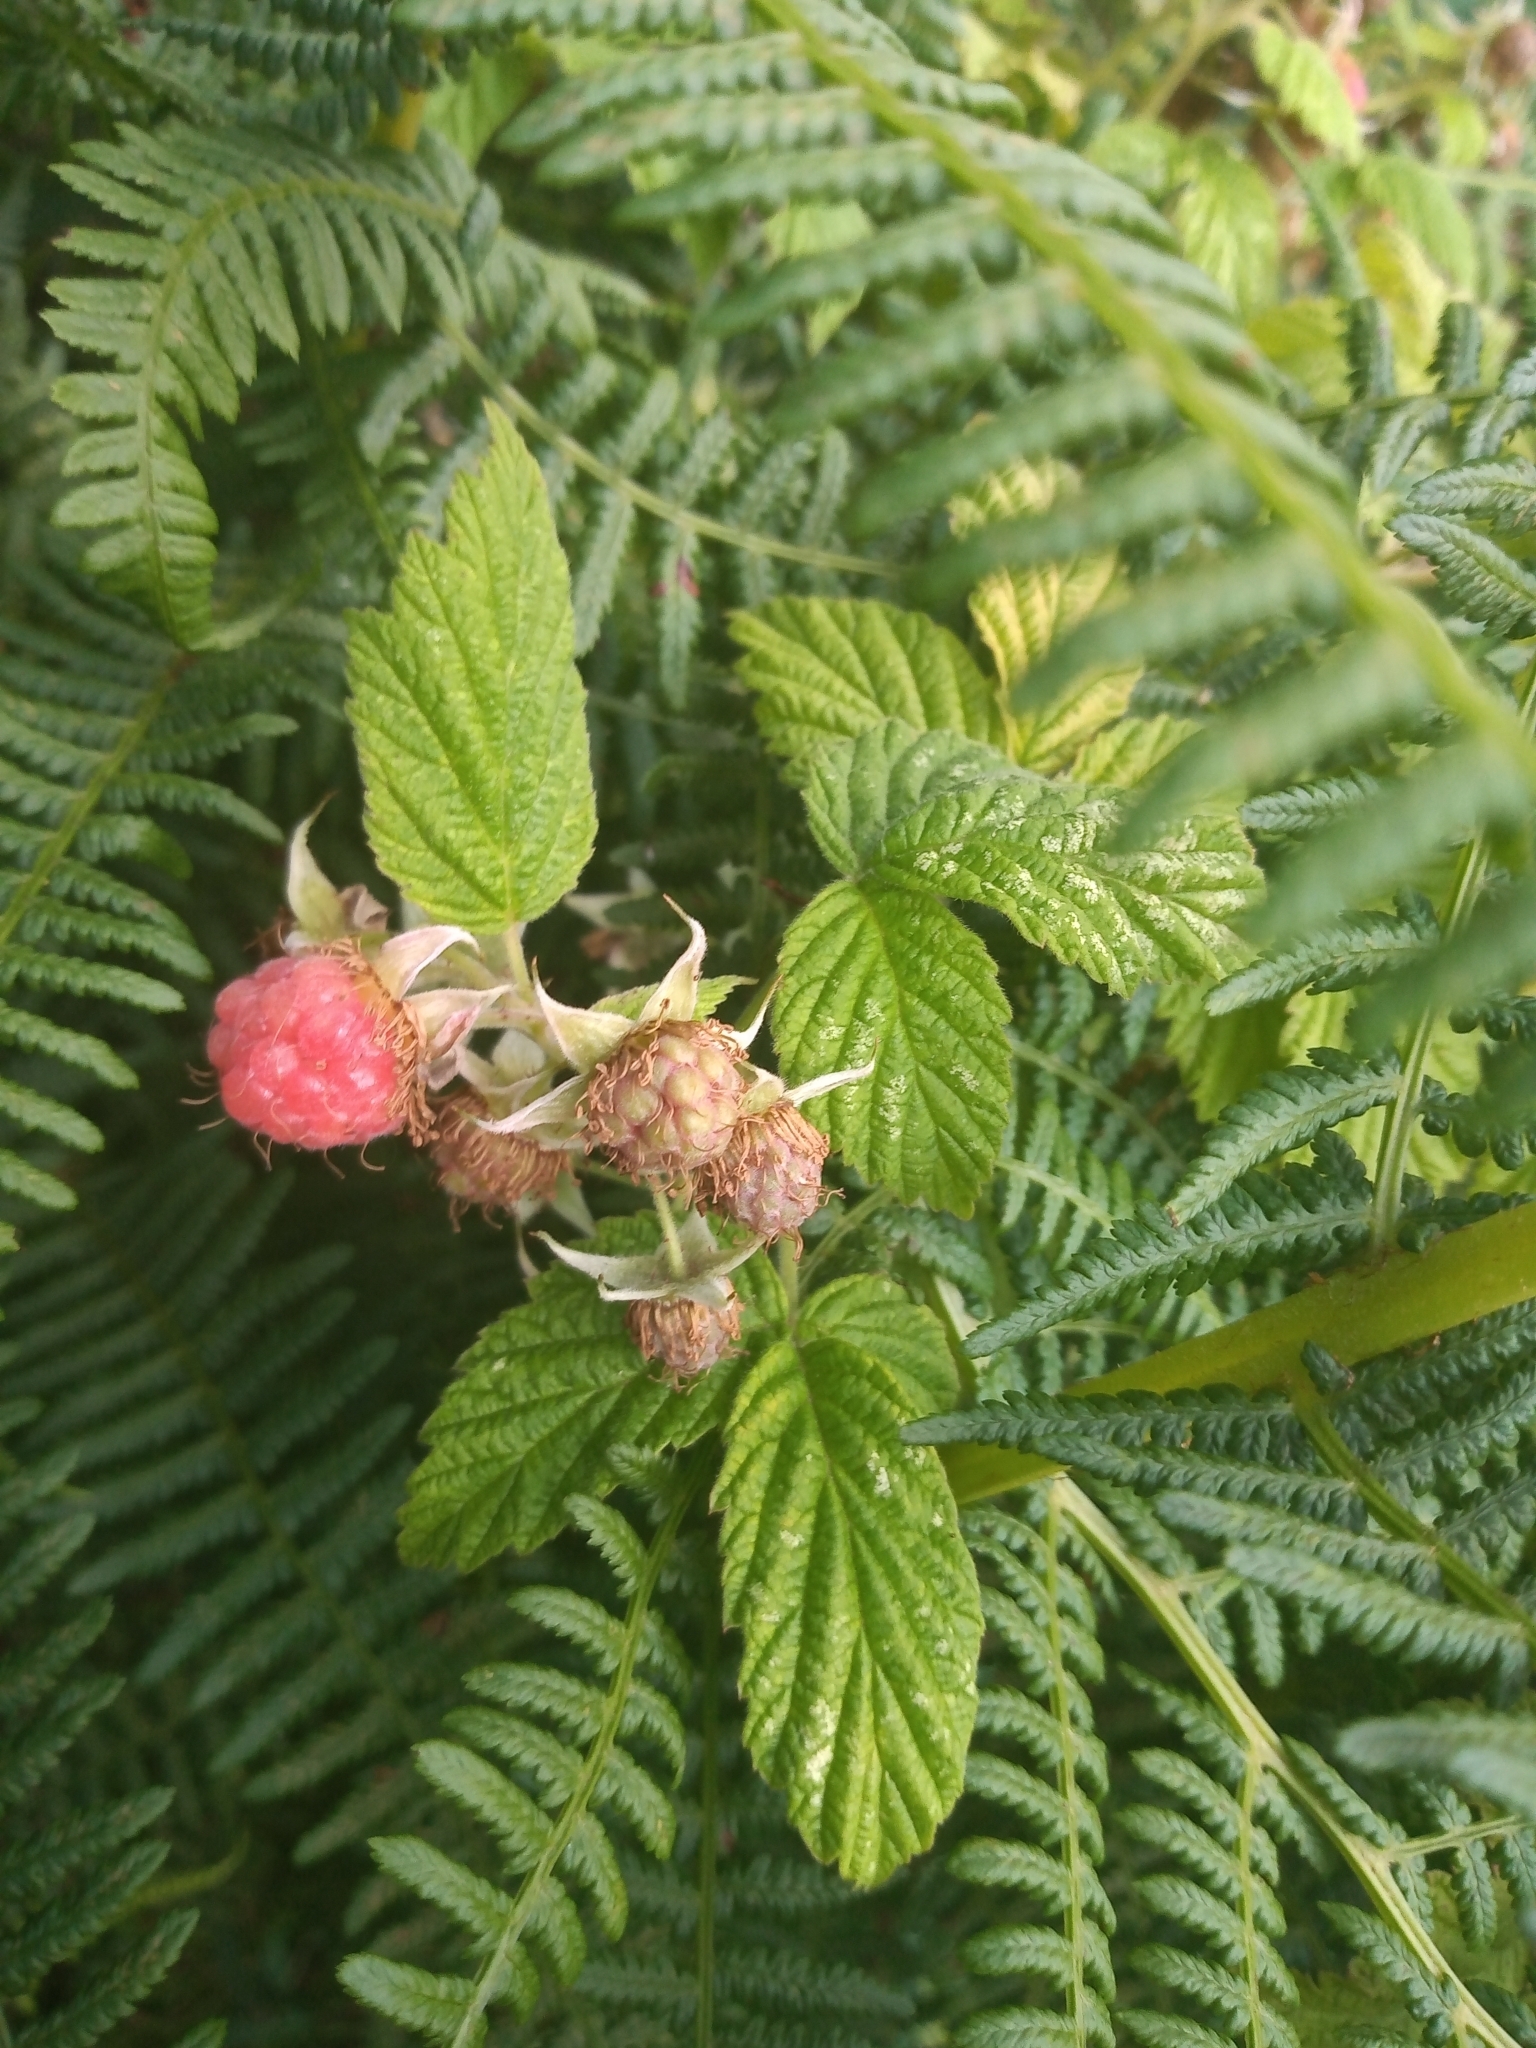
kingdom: Plantae
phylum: Tracheophyta
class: Magnoliopsida
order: Rosales
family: Rosaceae
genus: Rubus
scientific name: Rubus idaeus
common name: Raspberry
